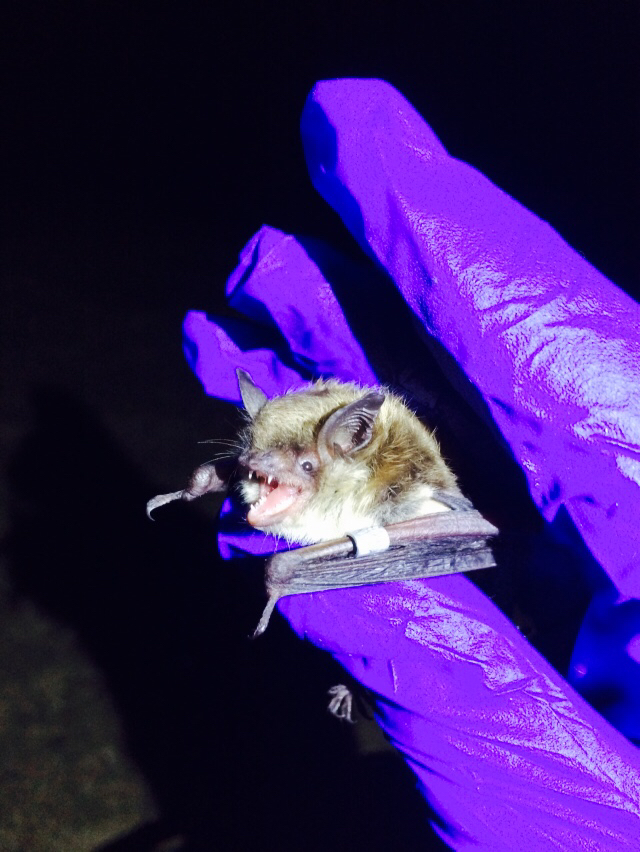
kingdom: Animalia
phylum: Chordata
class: Mammalia
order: Chiroptera
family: Vespertilionidae
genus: Myotis
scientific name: Myotis lucifugus
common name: Little brown bat
